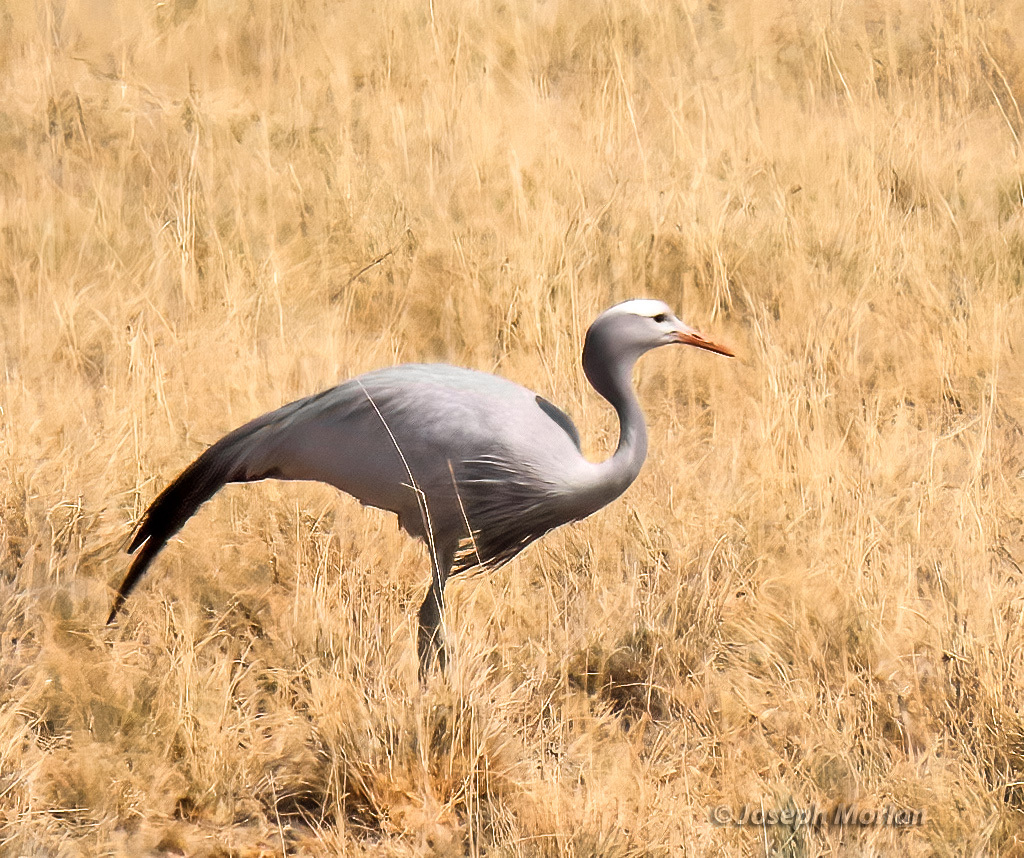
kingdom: Animalia
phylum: Chordata
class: Aves
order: Gruiformes
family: Gruidae
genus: Anthropoides
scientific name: Anthropoides paradiseus
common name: Blue crane
